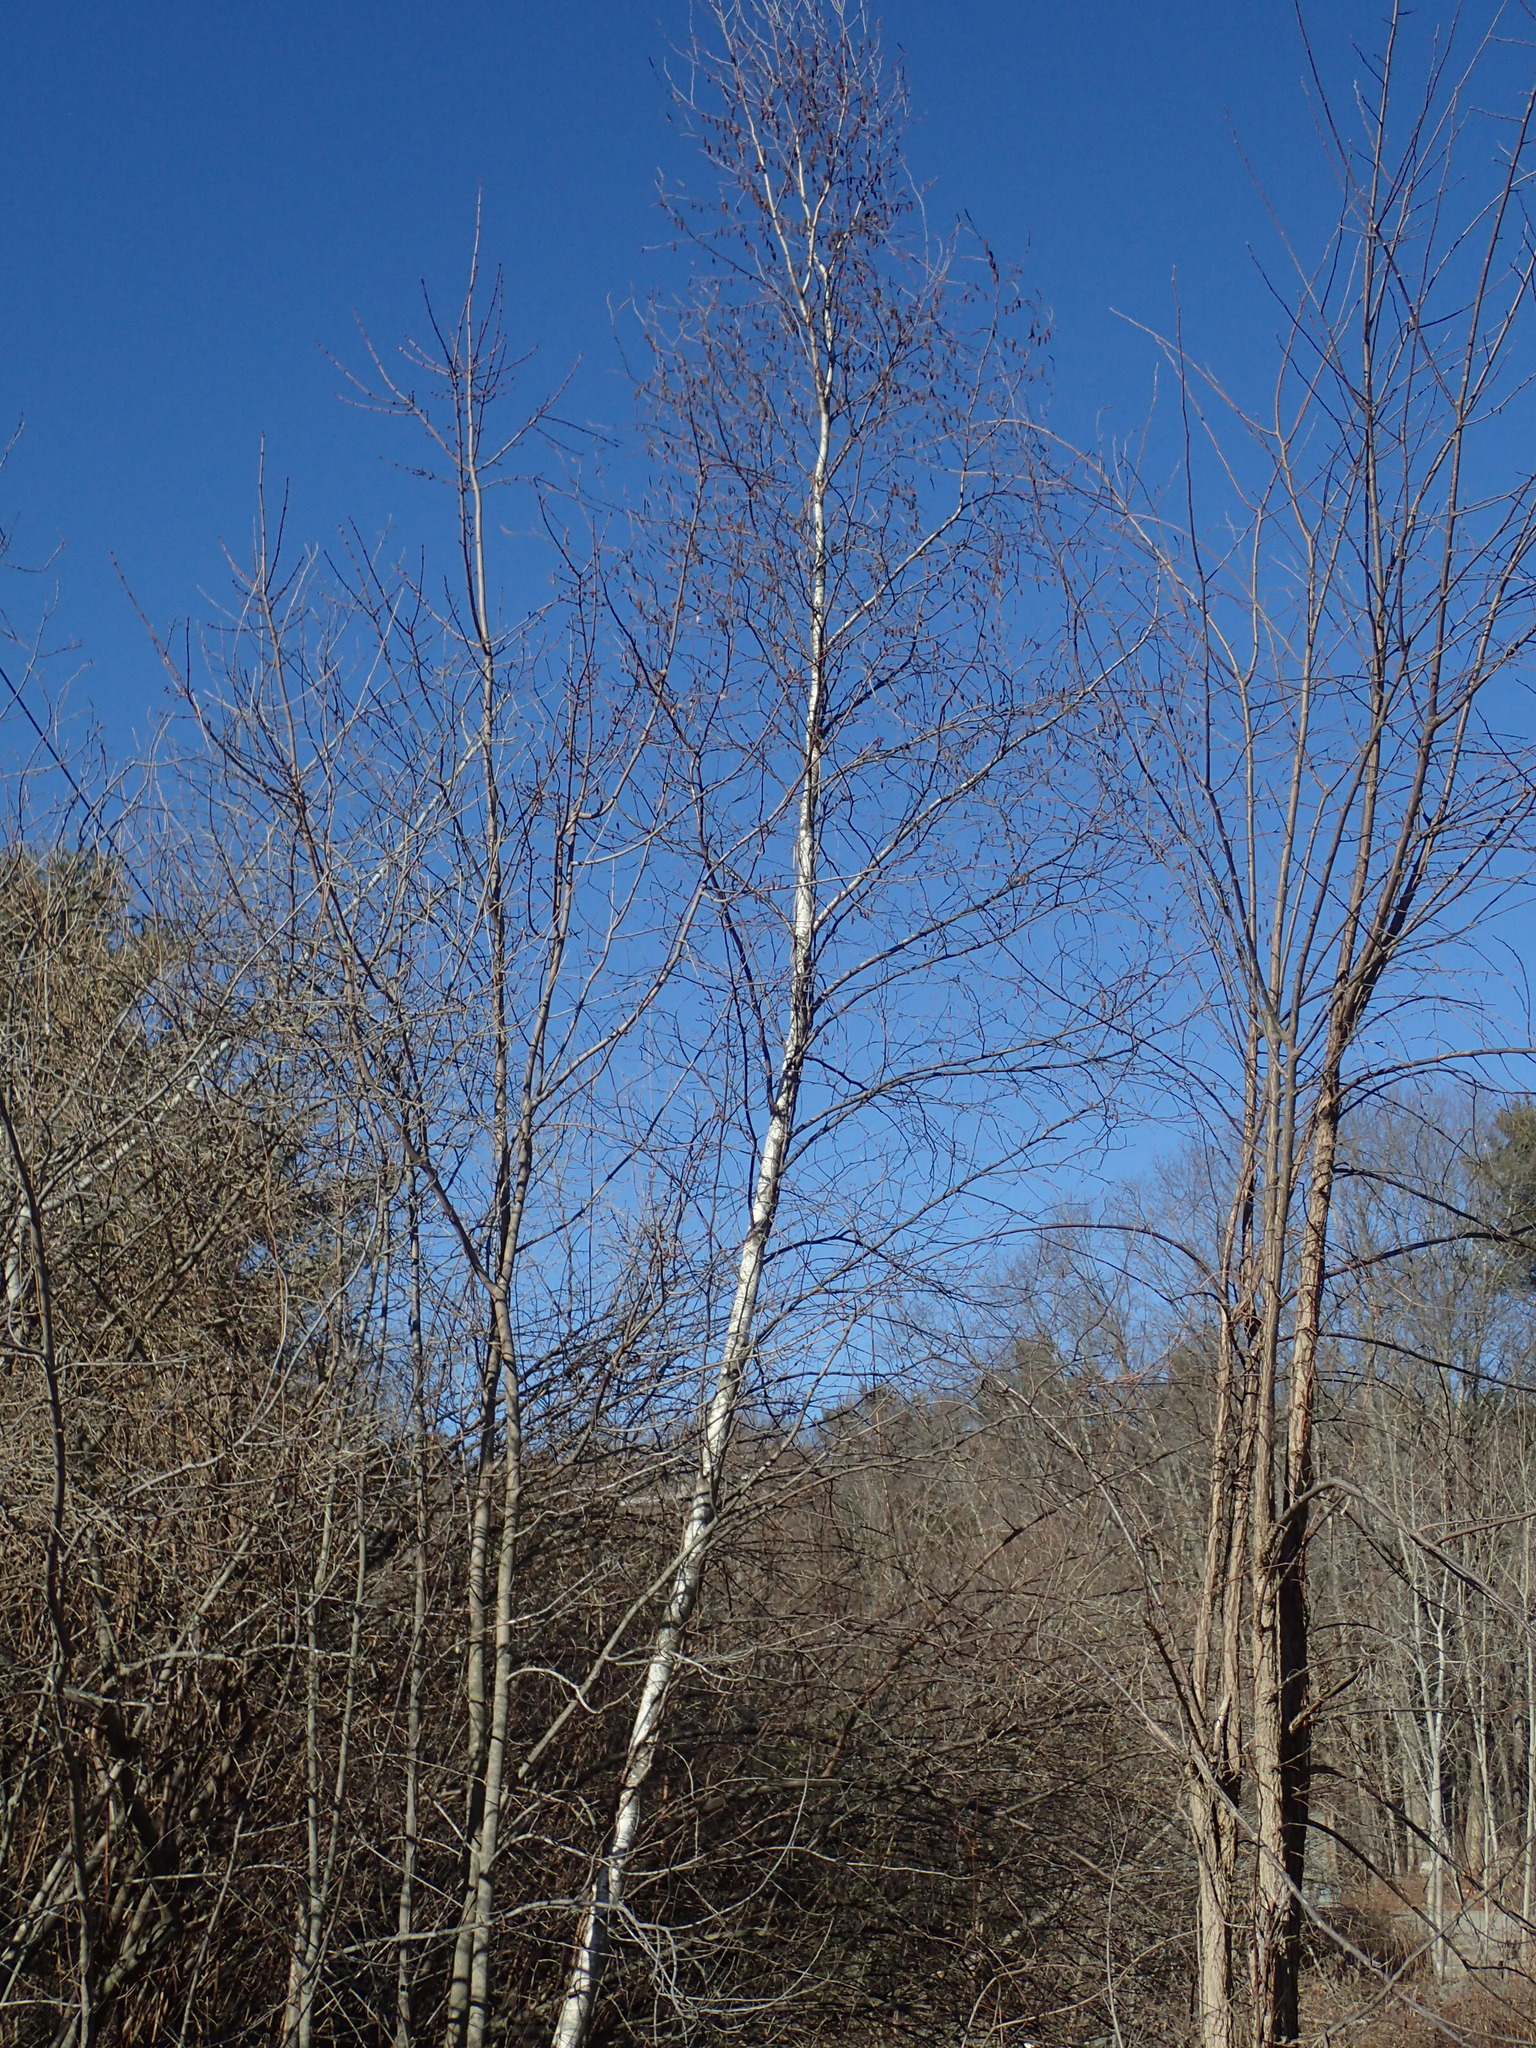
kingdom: Plantae
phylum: Tracheophyta
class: Magnoliopsida
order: Fagales
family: Betulaceae
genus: Betula
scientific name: Betula populifolia
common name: Fire birch
